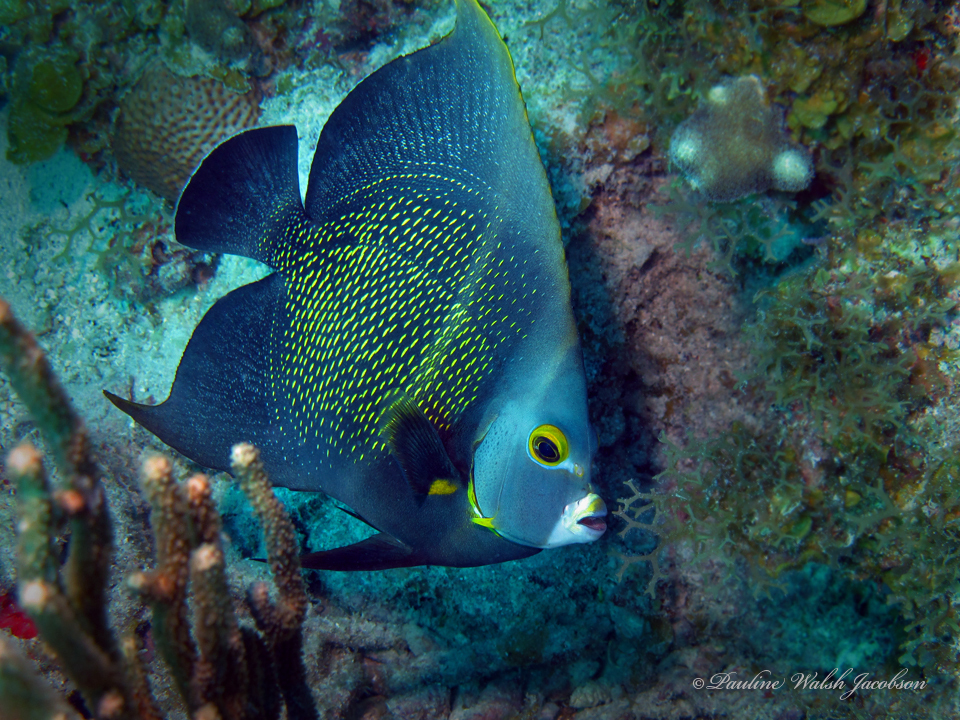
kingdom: Animalia
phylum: Chordata
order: Perciformes
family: Pomacanthidae
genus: Pomacanthus
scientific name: Pomacanthus paru
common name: French angelfish
